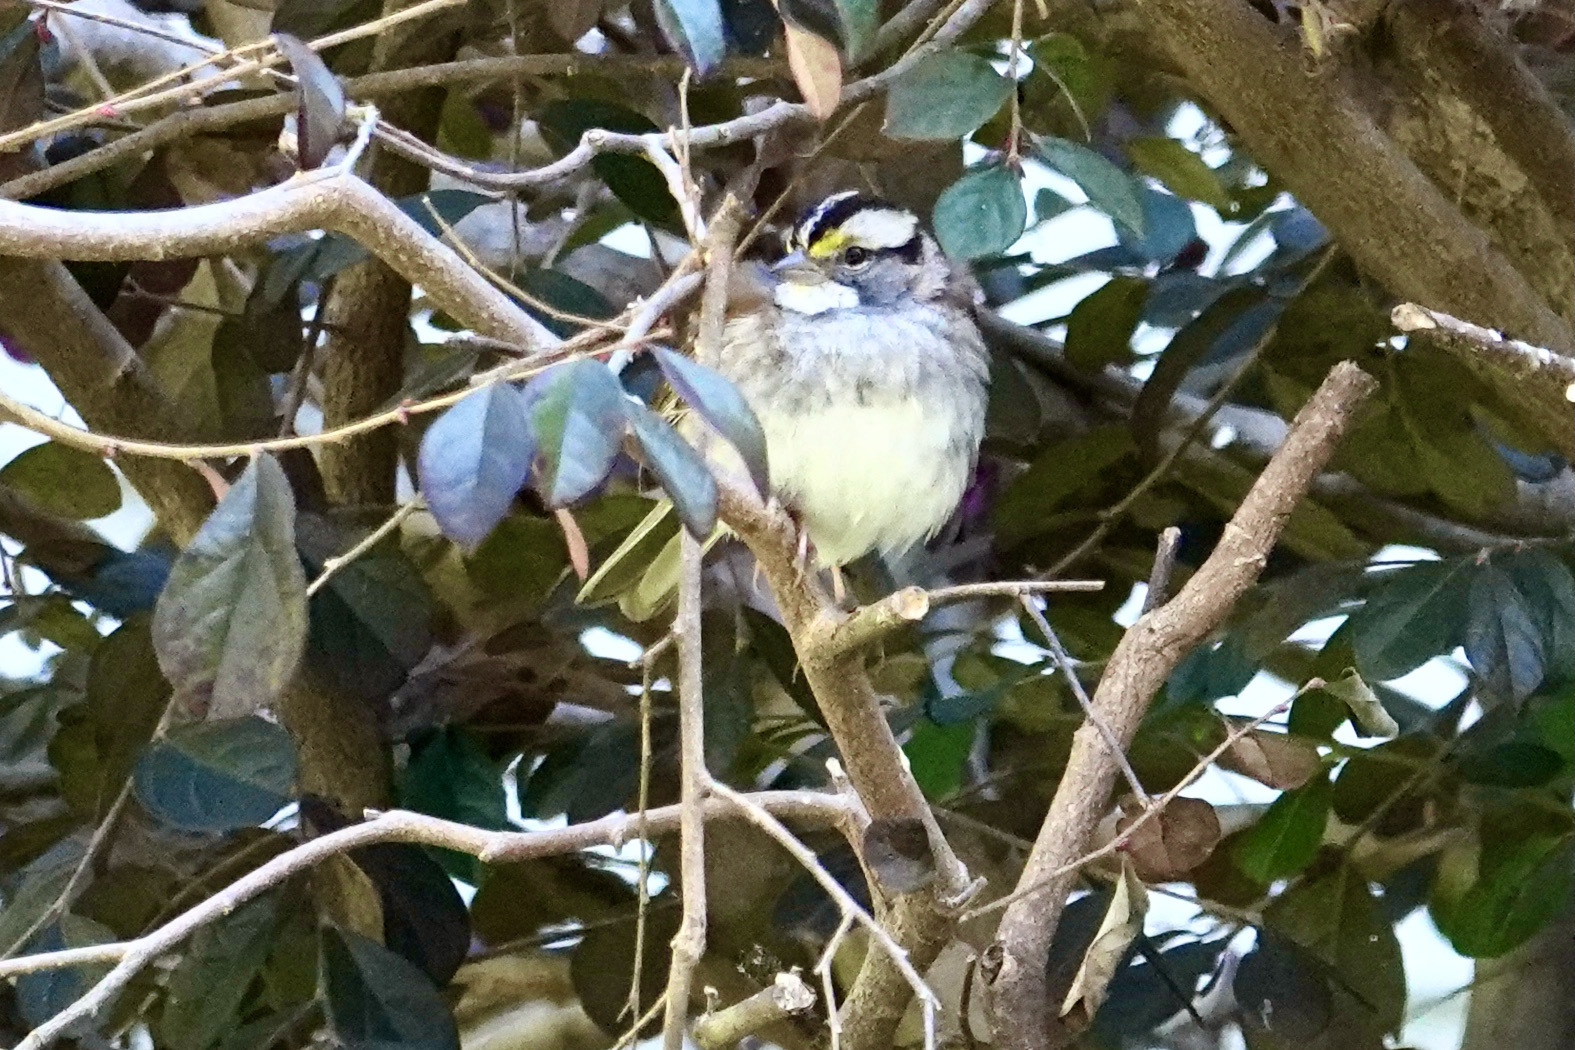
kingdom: Animalia
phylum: Chordata
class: Aves
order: Passeriformes
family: Passerellidae
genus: Zonotrichia
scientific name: Zonotrichia albicollis
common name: White-throated sparrow
